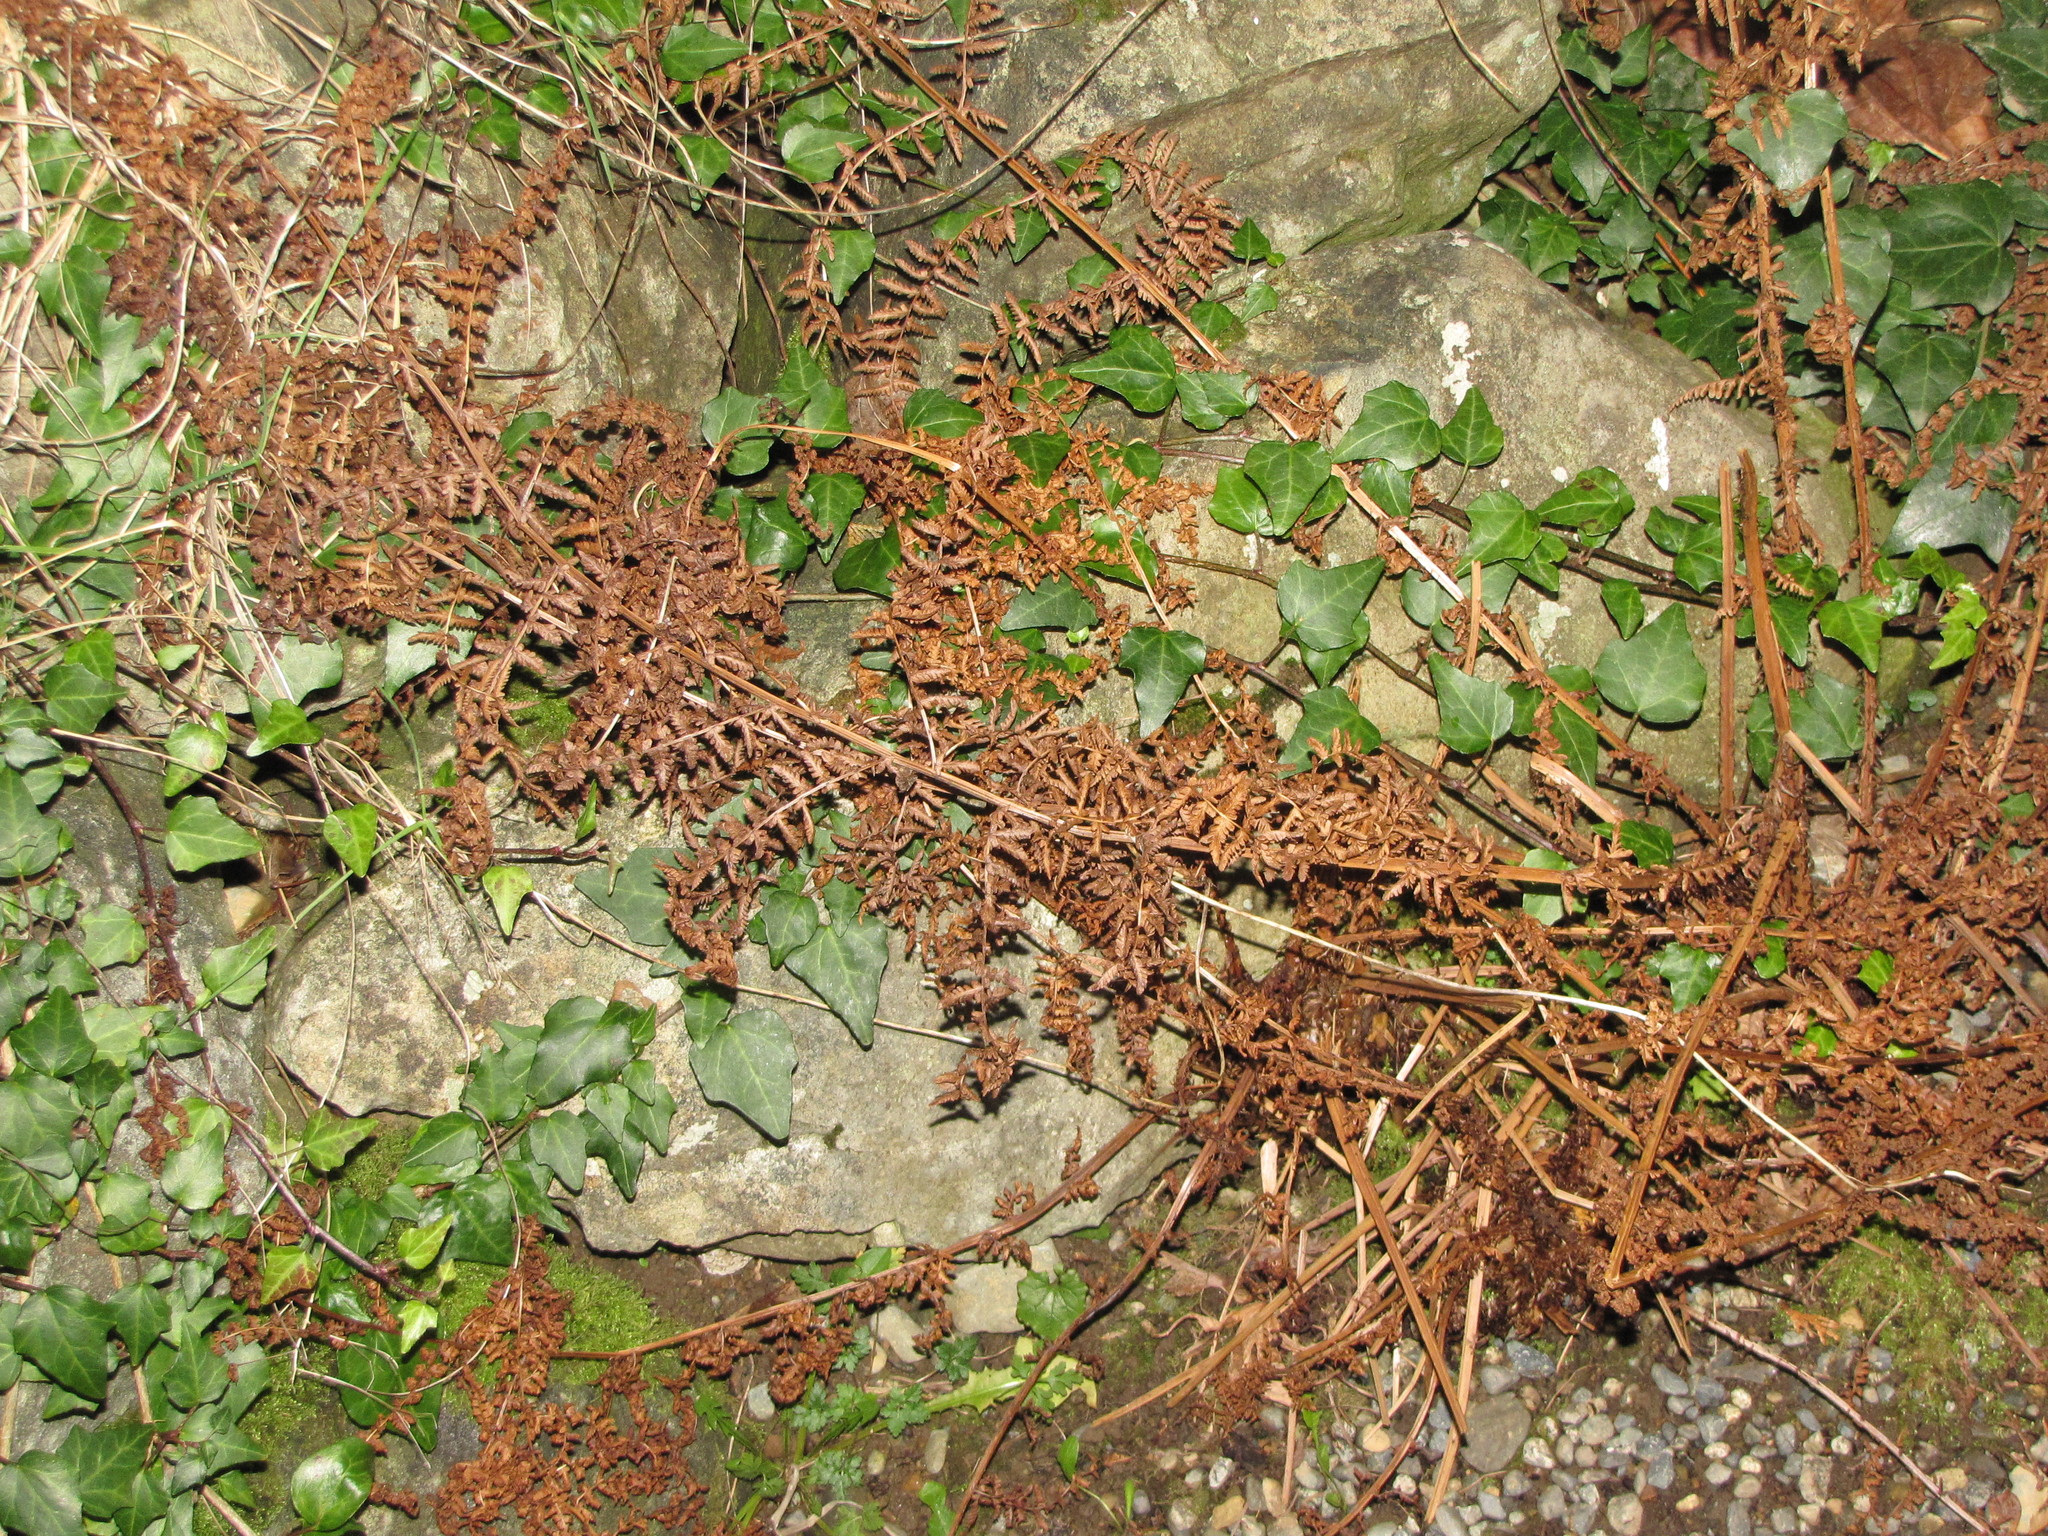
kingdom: Plantae
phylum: Tracheophyta
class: Polypodiopsida
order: Polypodiales
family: Athyriaceae
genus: Athyrium
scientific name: Athyrium cyclosorum
